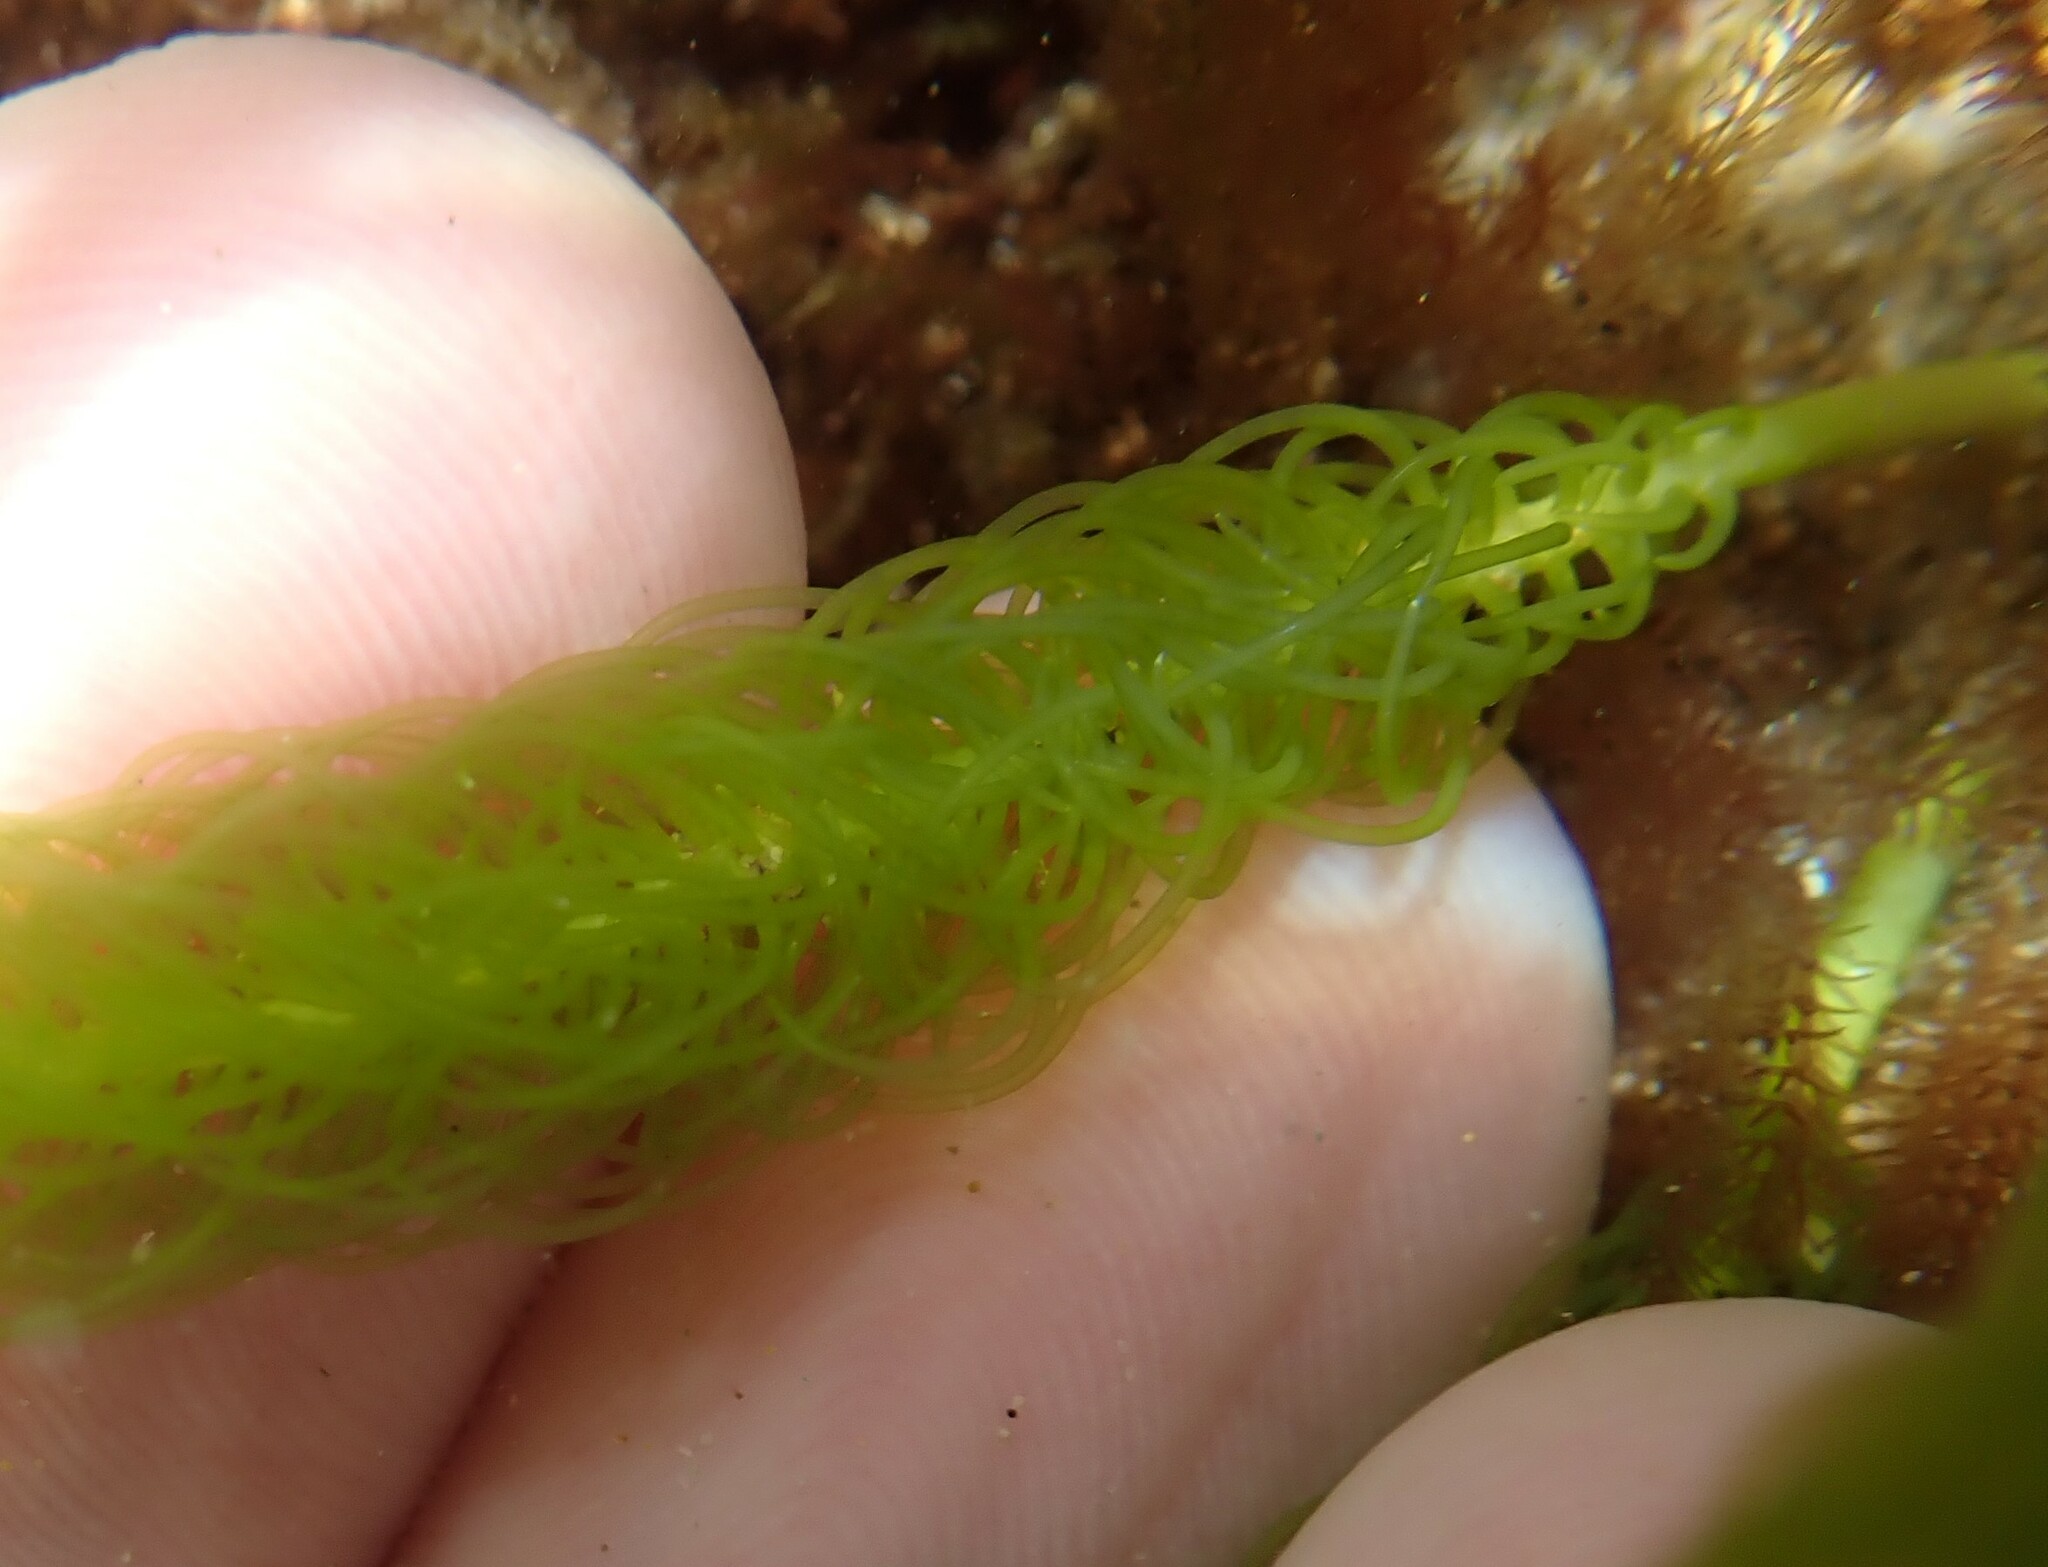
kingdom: Plantae
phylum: Chlorophyta
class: Ulvophyceae
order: Bryopsidales
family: Caulerpaceae
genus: Caulerpa
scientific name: Caulerpa
